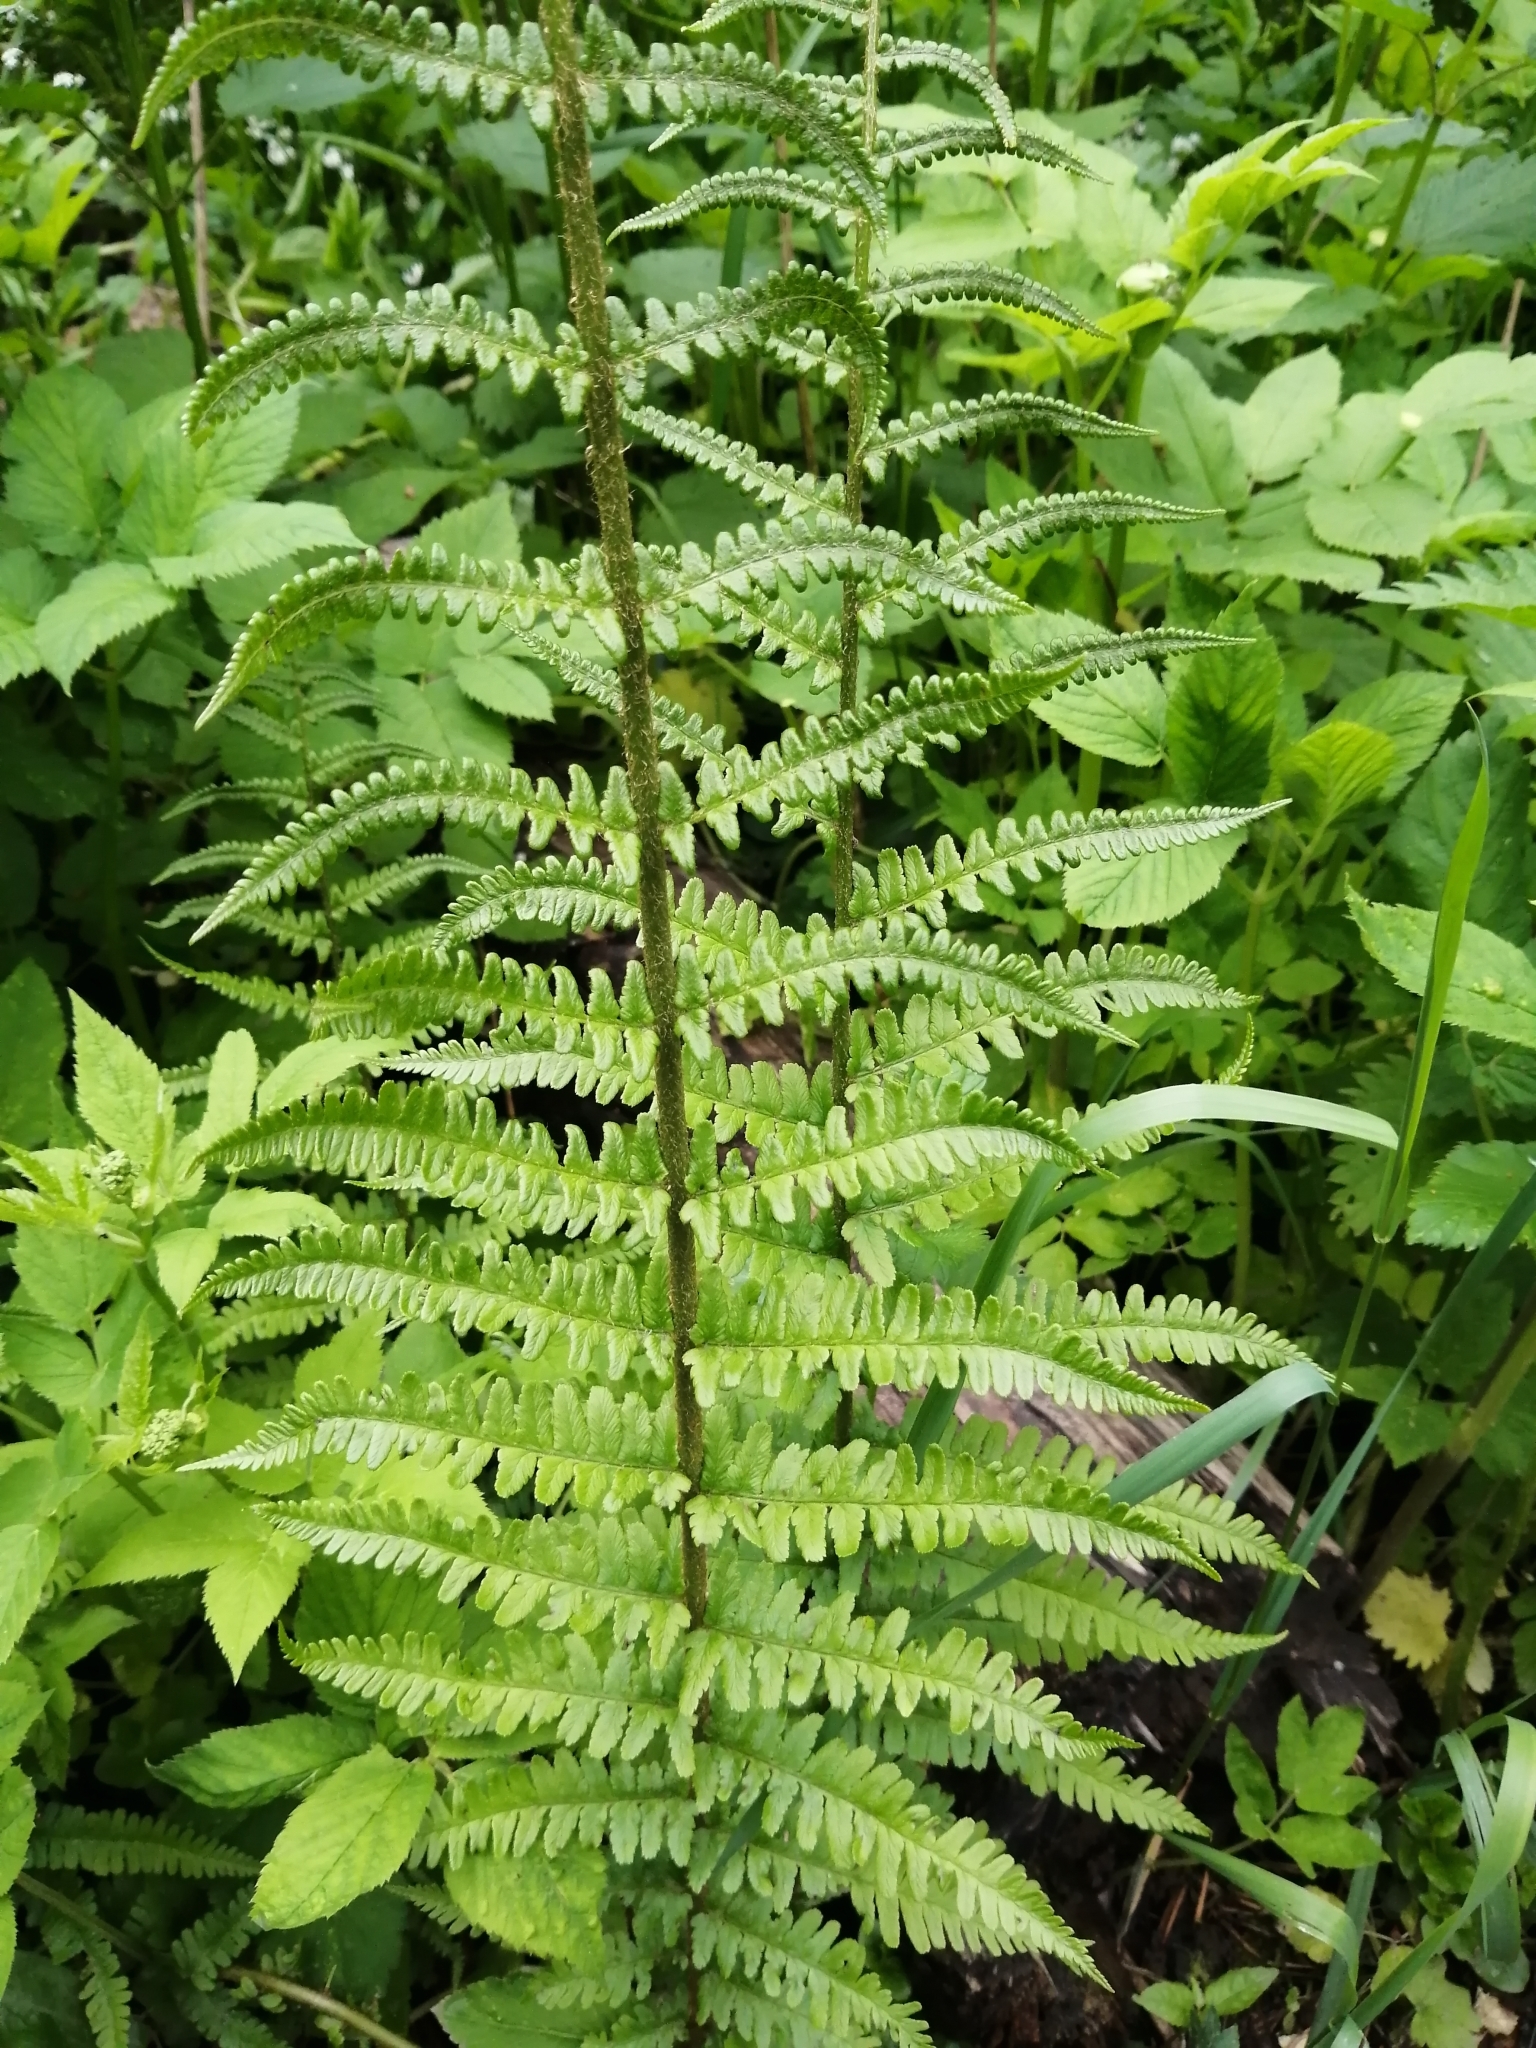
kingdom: Plantae
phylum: Tracheophyta
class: Polypodiopsida
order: Polypodiales
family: Dryopteridaceae
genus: Dryopteris
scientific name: Dryopteris filix-mas
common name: Male fern
